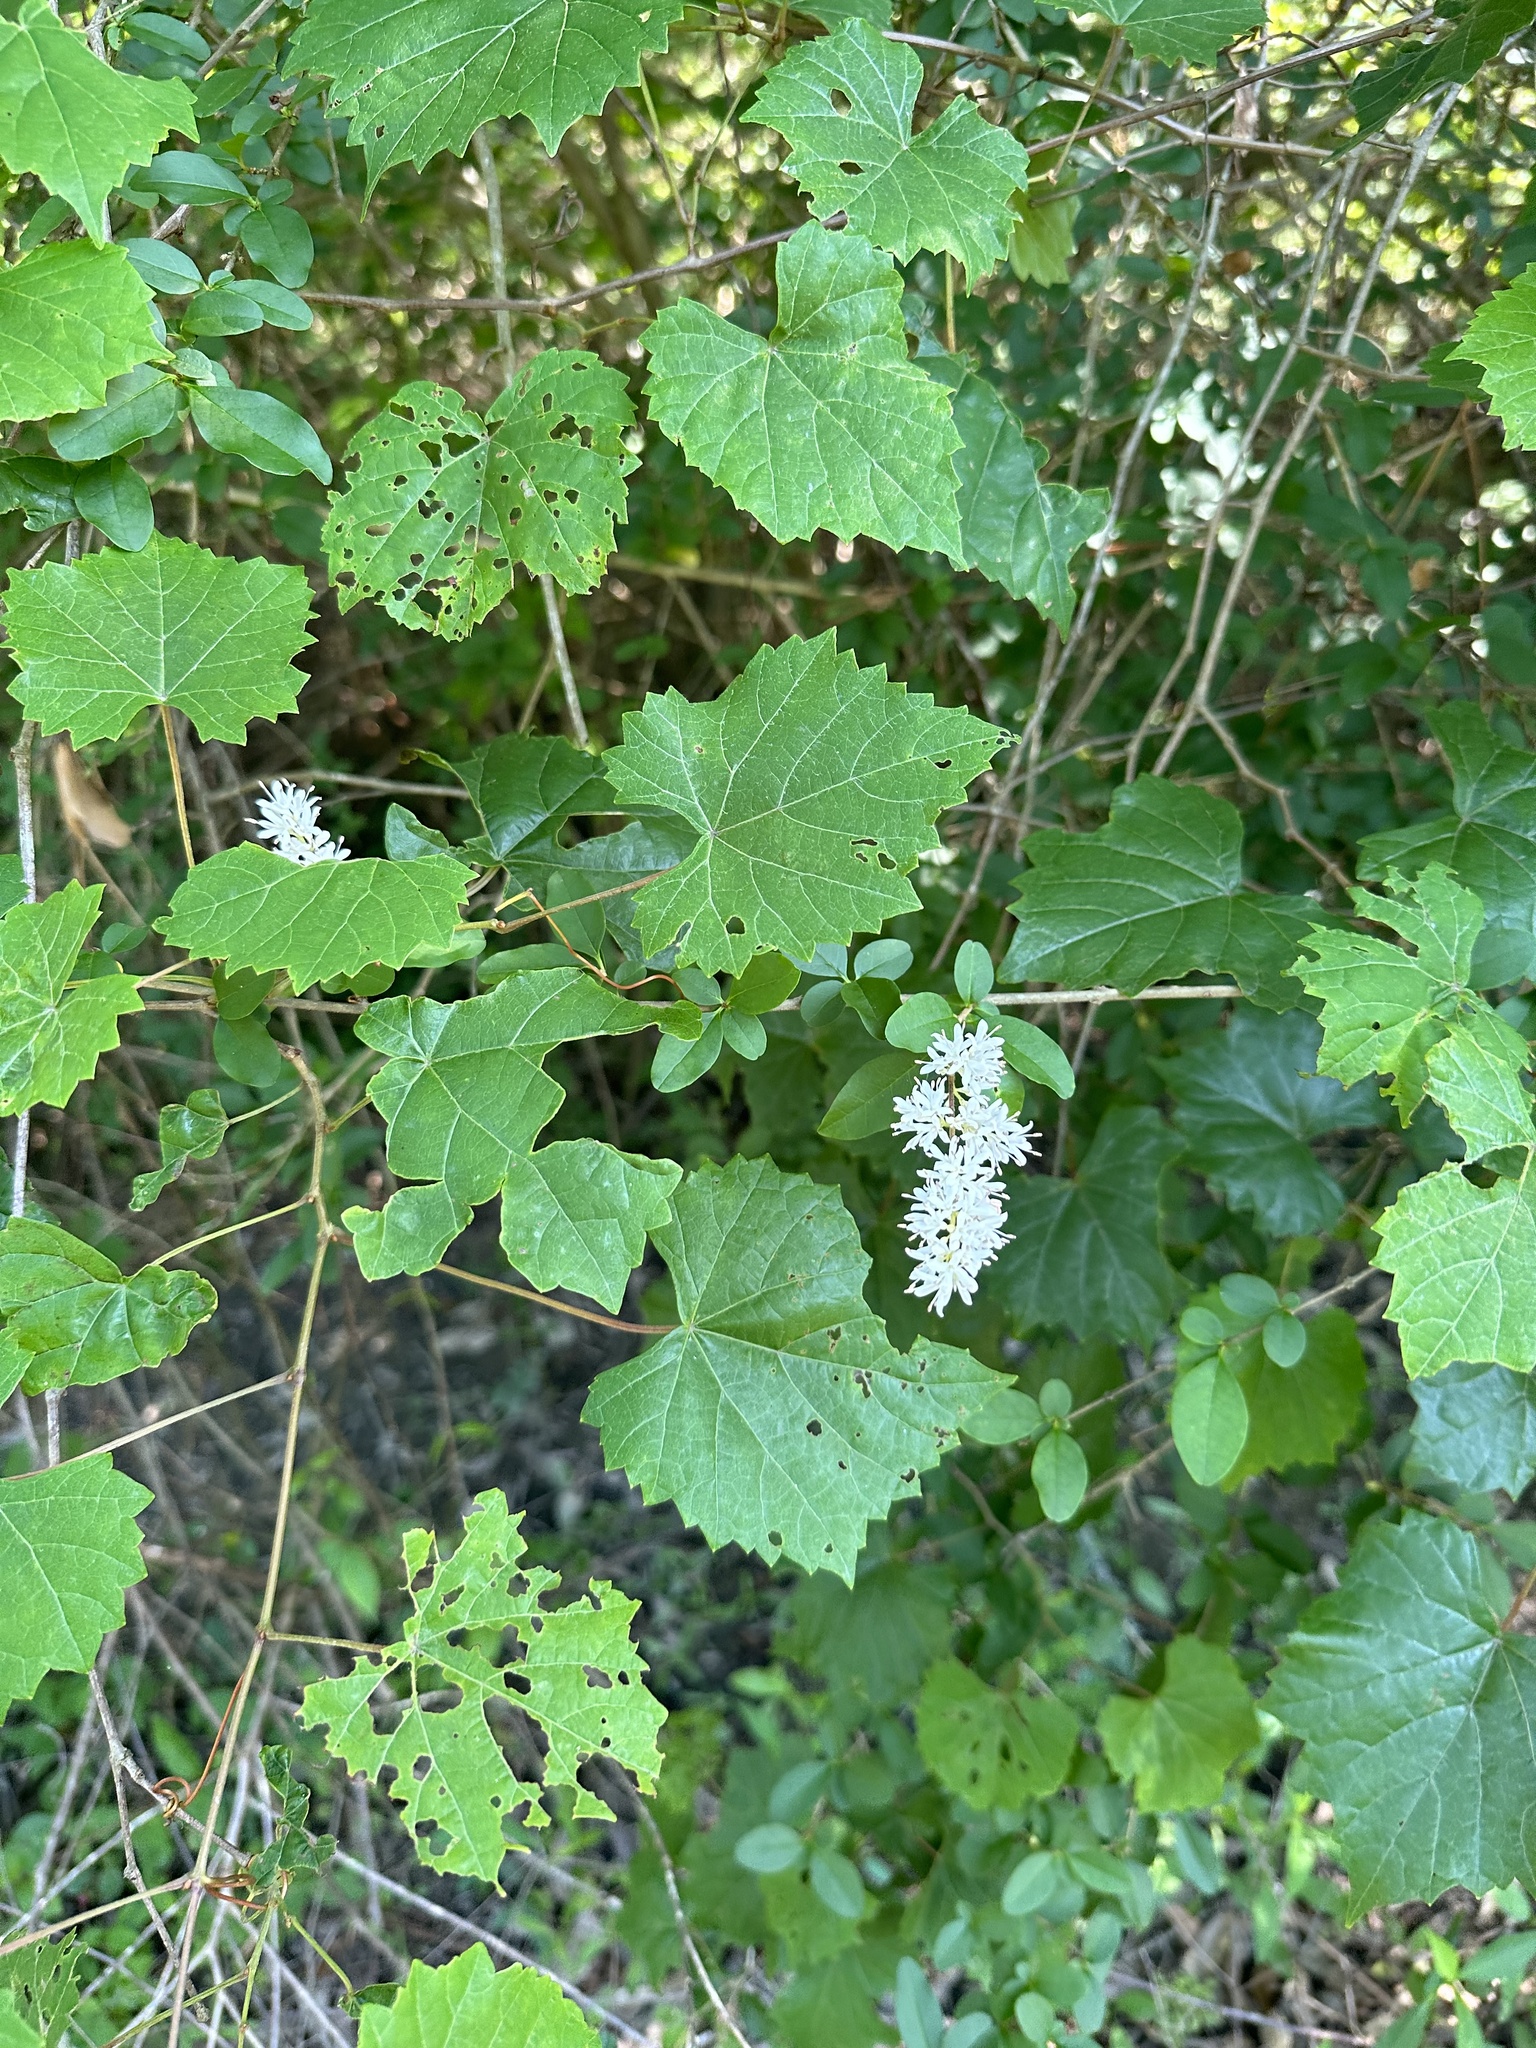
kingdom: Plantae
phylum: Tracheophyta
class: Magnoliopsida
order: Lamiales
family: Oleaceae
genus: Ligustrum
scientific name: Ligustrum sinense
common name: Chinese privet
